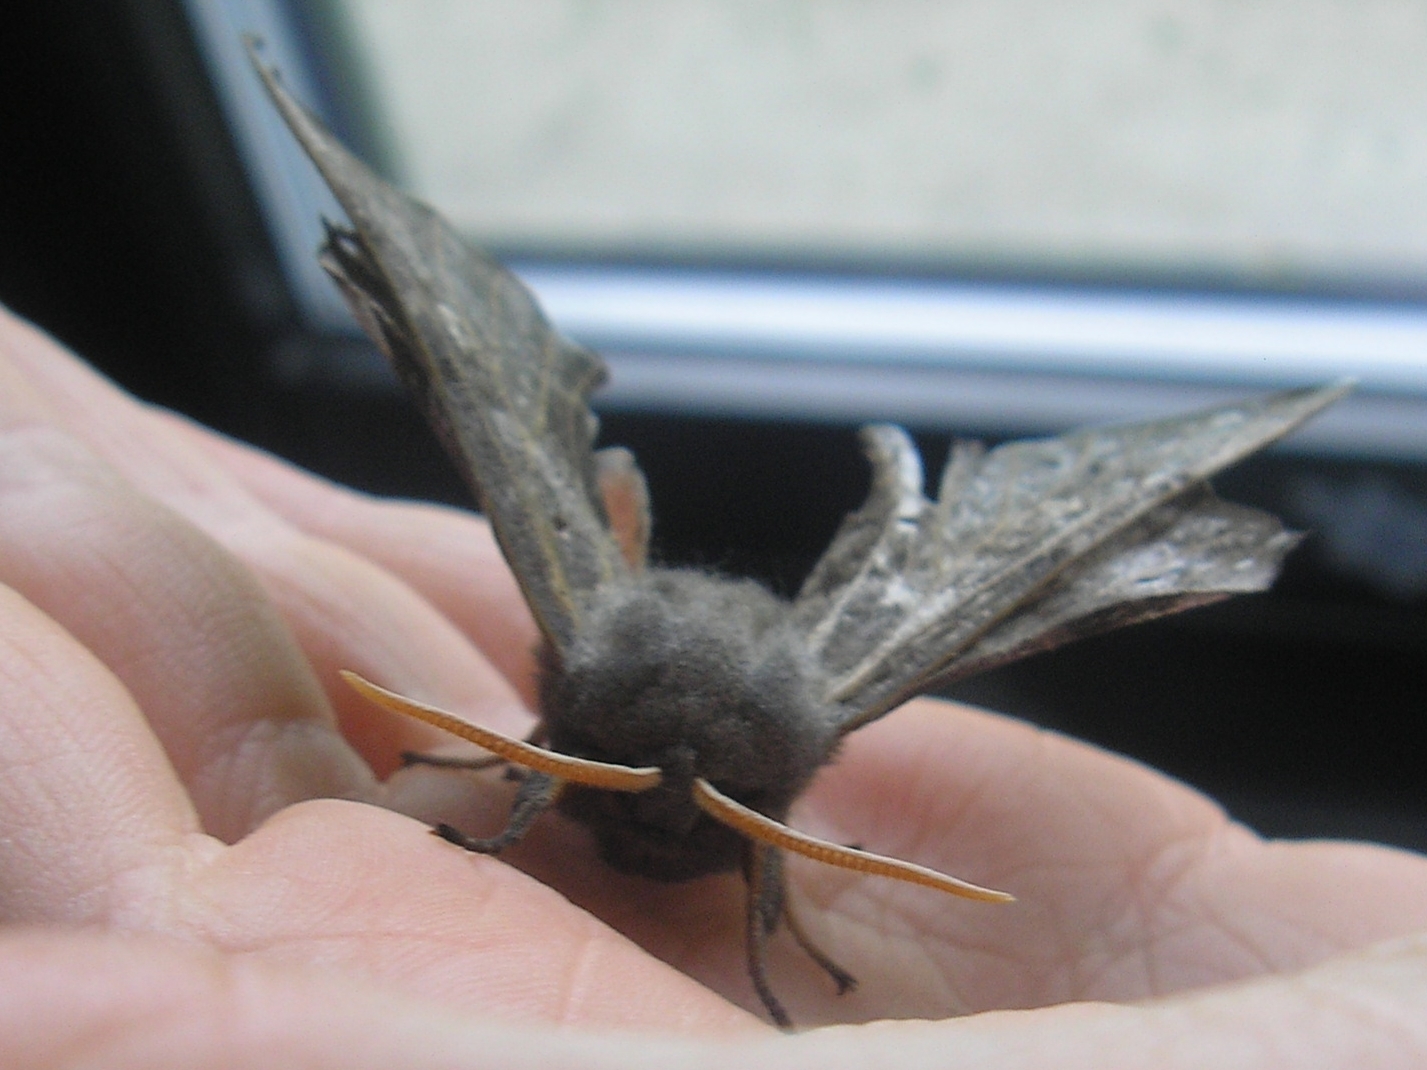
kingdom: Animalia
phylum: Arthropoda
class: Insecta
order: Lepidoptera
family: Sphingidae
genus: Laothoe
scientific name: Laothoe populi
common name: Poplar hawk-moth
